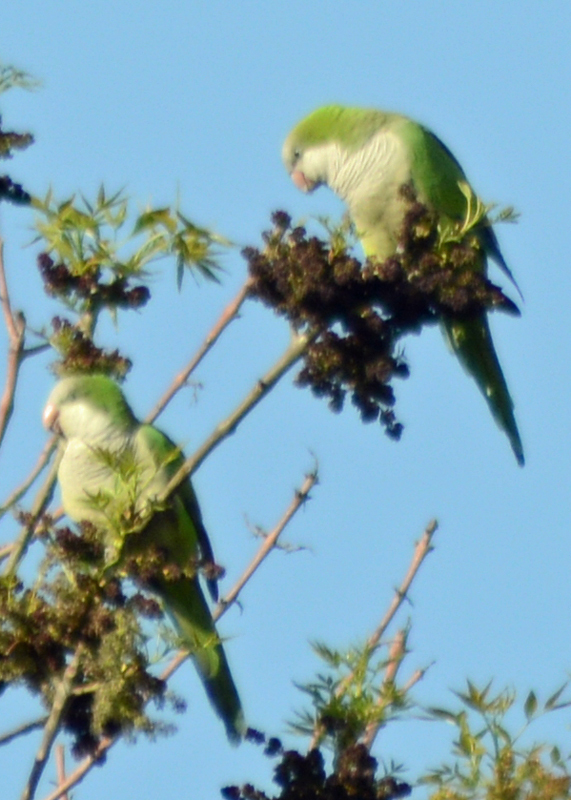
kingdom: Animalia
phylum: Chordata
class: Aves
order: Psittaciformes
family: Psittacidae
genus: Myiopsitta
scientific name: Myiopsitta monachus
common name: Monk parakeet
